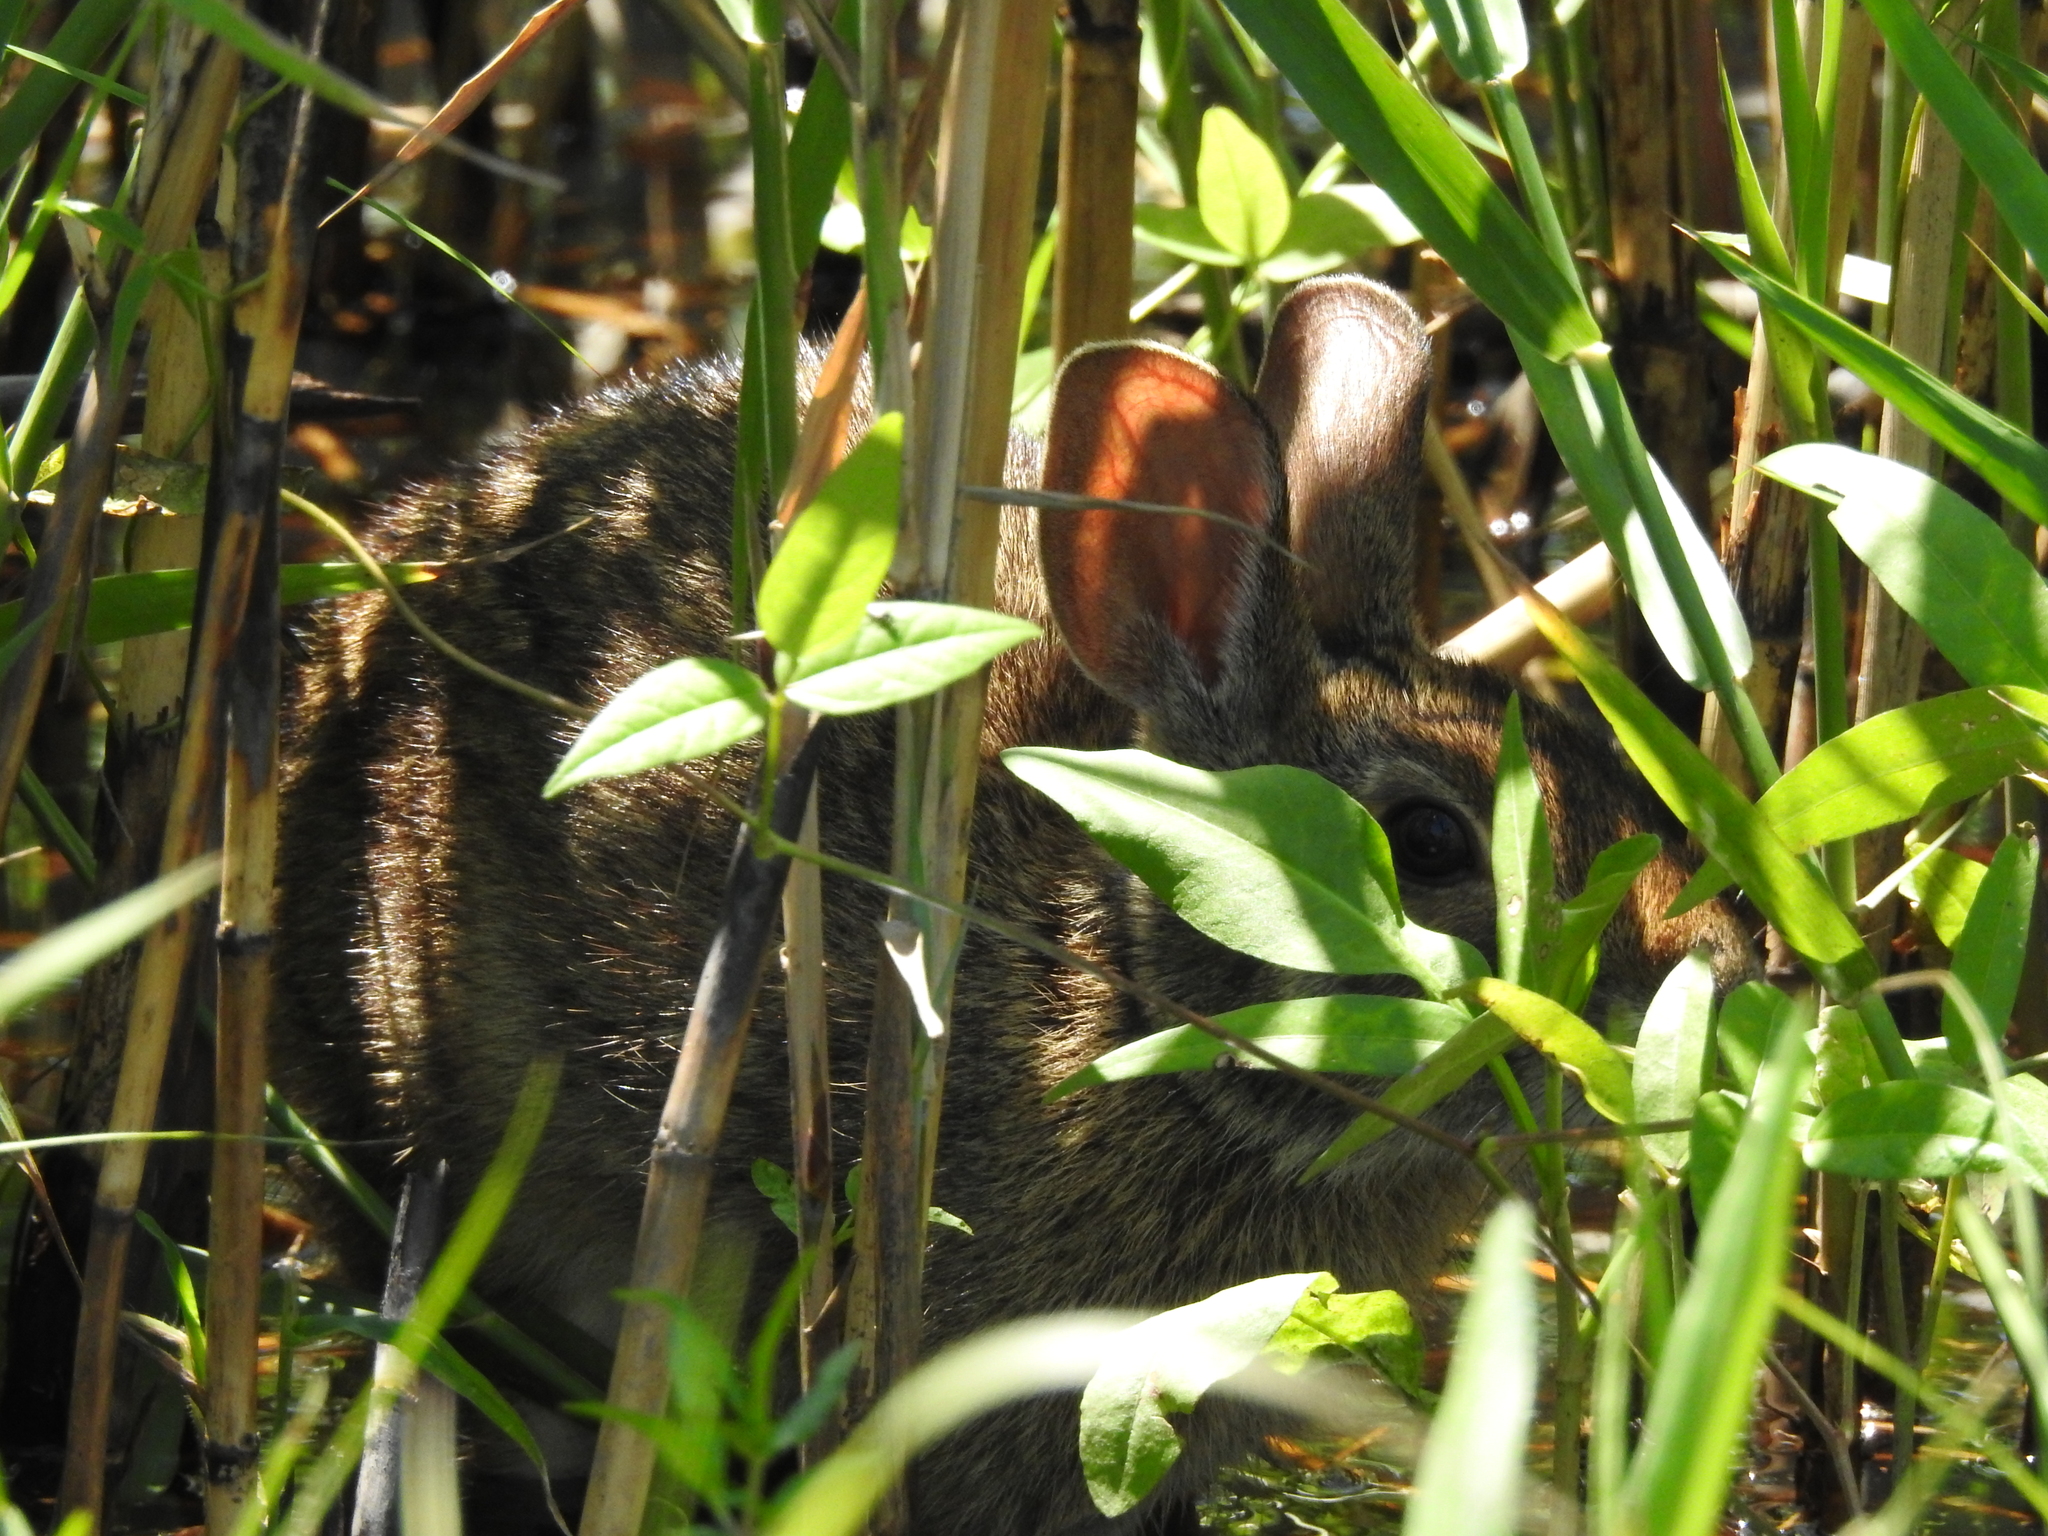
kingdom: Animalia
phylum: Chordata
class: Mammalia
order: Lagomorpha
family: Leporidae
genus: Sylvilagus
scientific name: Sylvilagus aquaticus
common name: Swamp rabbit
